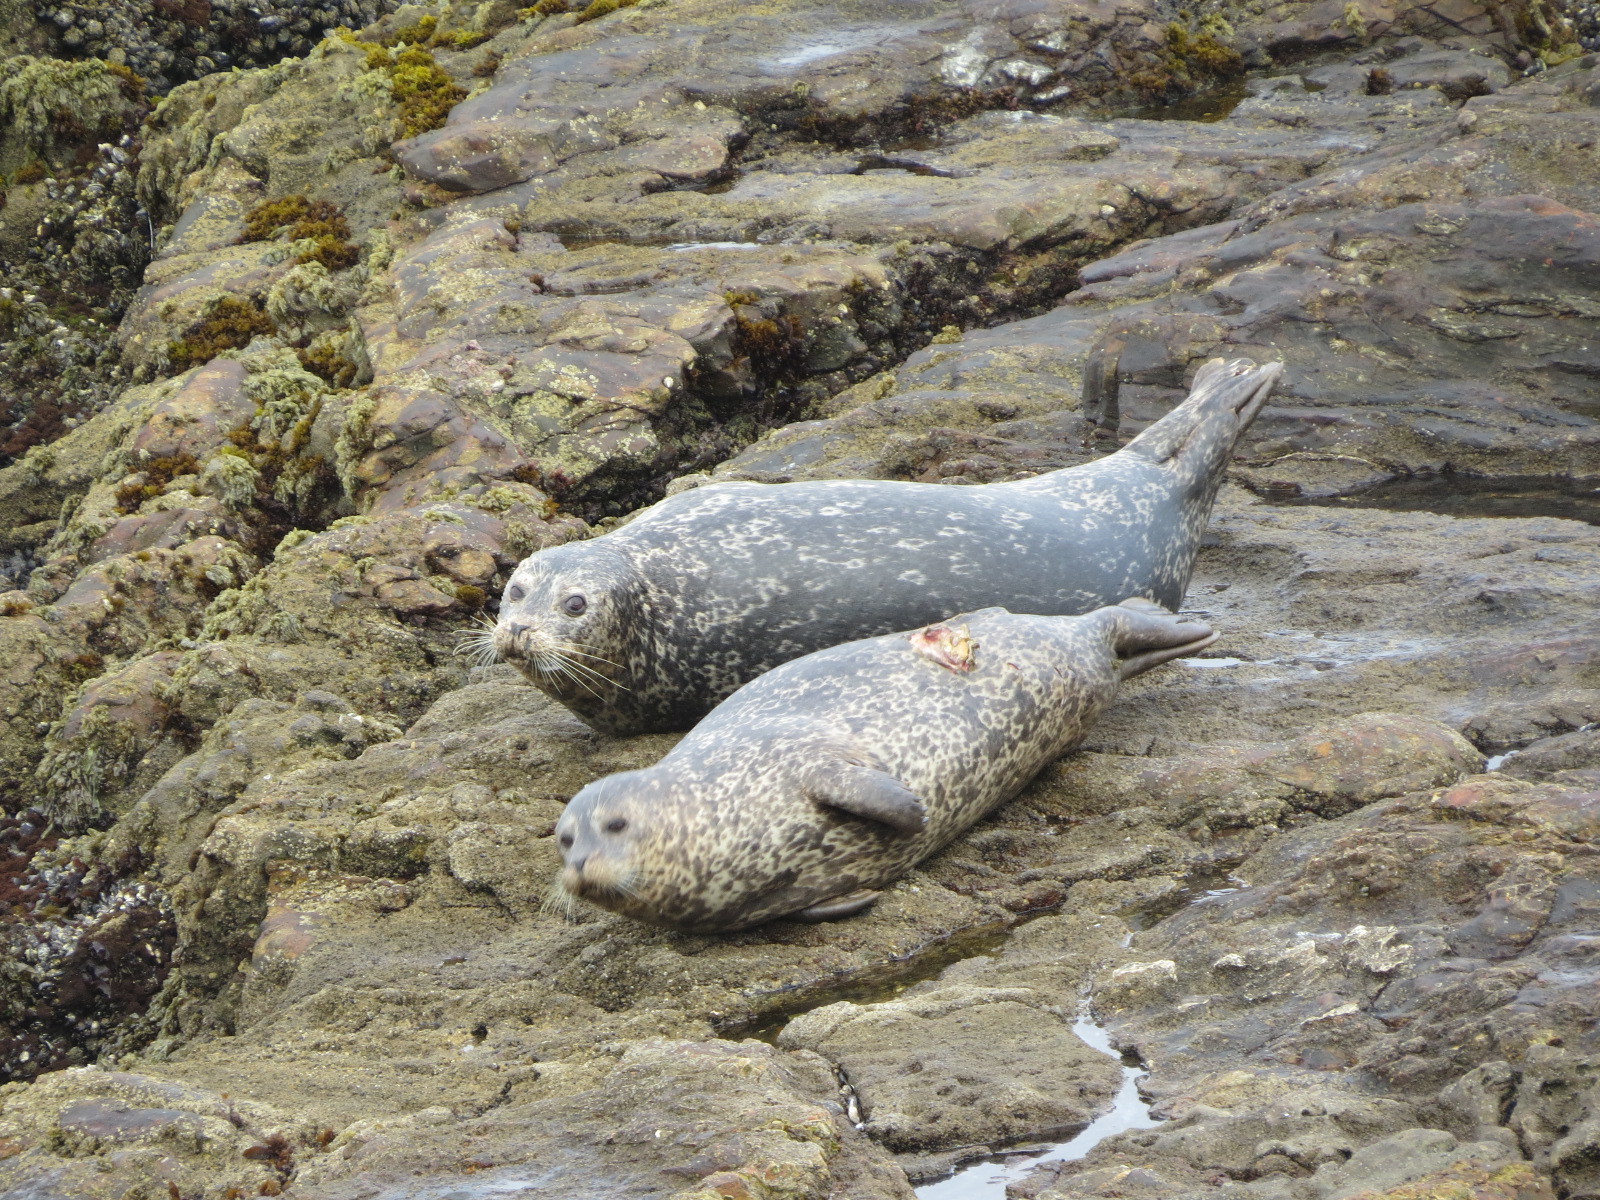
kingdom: Animalia
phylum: Chordata
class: Mammalia
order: Carnivora
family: Phocidae
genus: Phoca
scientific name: Phoca vitulina
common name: Harbor seal
